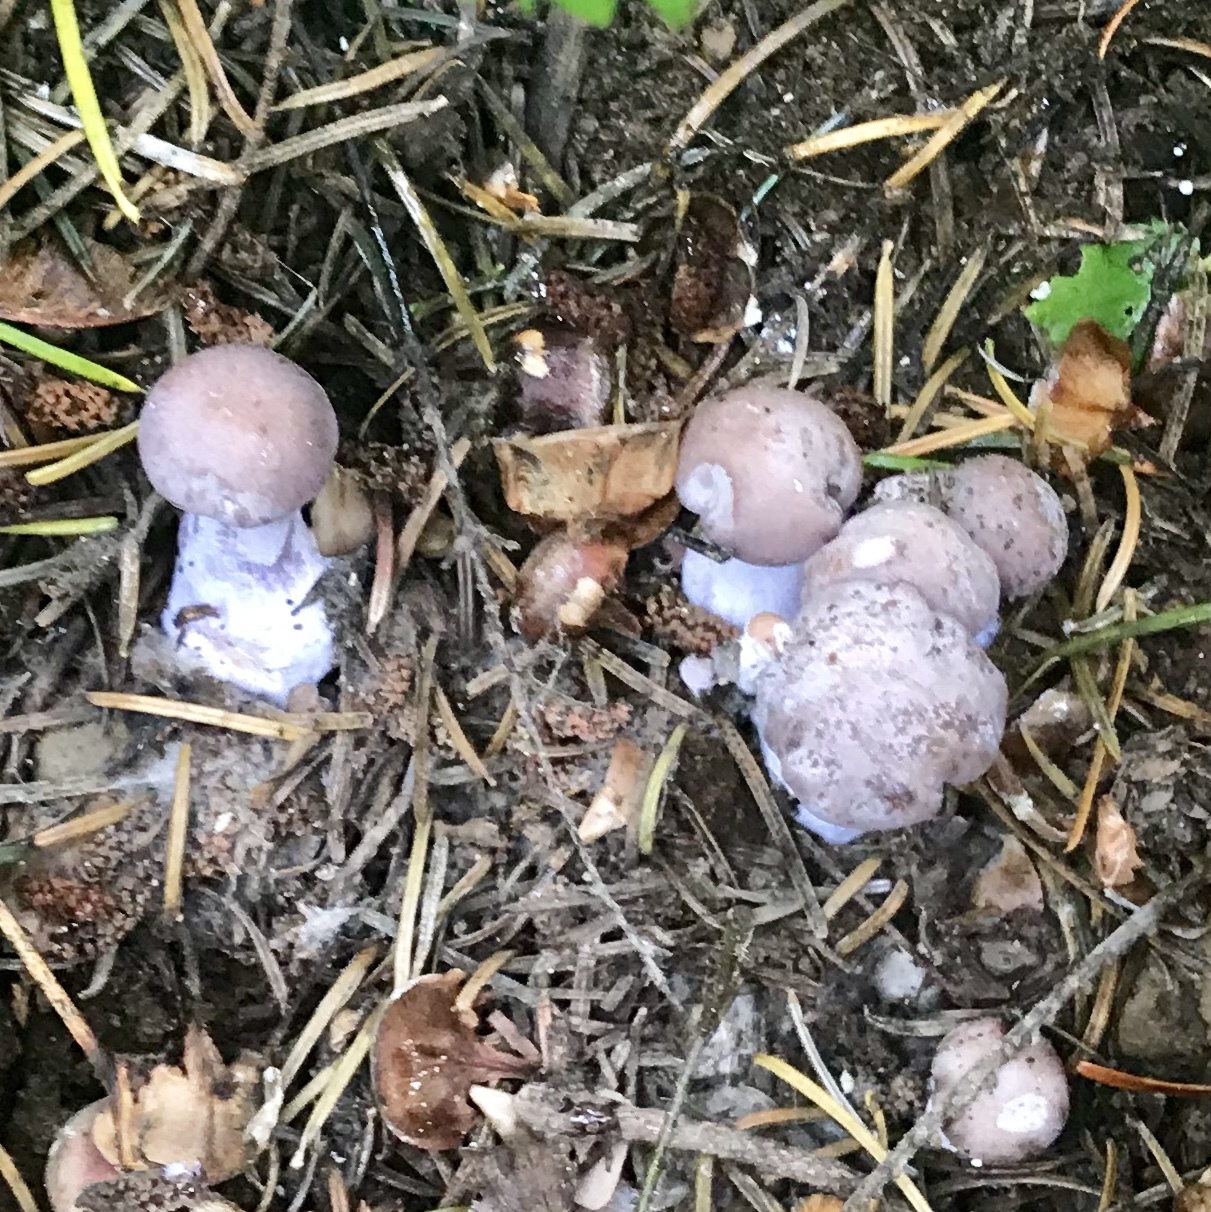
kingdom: Fungi
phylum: Basidiomycota
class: Agaricomycetes
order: Agaricales
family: Tricholomataceae
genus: Collybia
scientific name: Collybia
